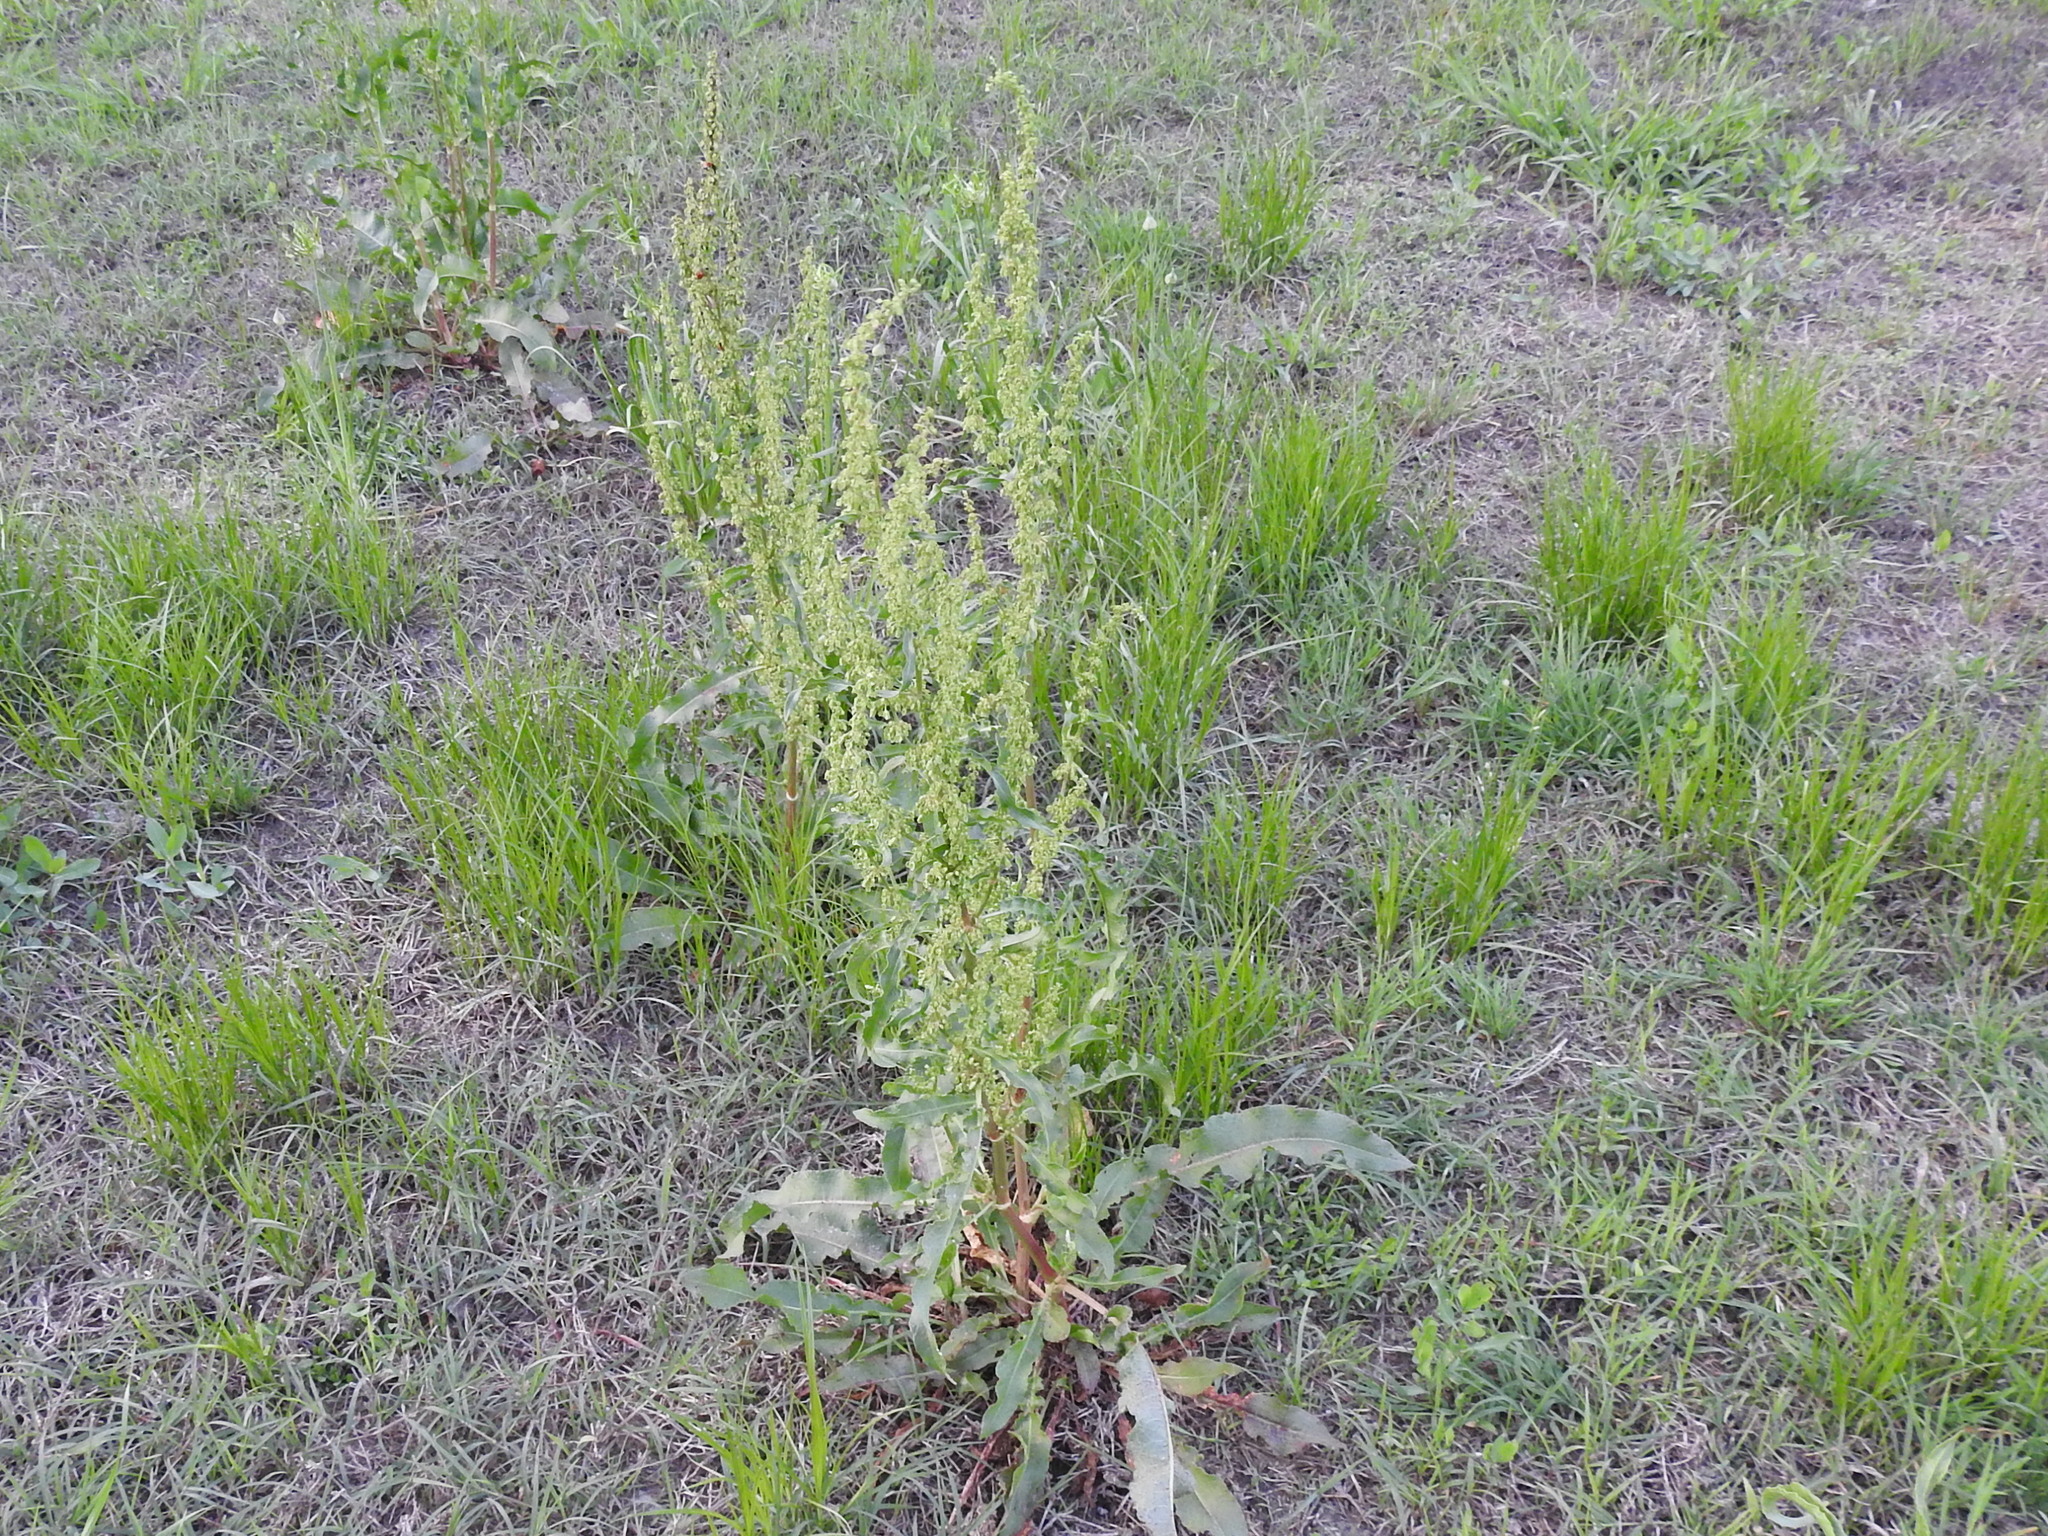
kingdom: Plantae
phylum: Tracheophyta
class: Magnoliopsida
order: Caryophyllales
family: Polygonaceae
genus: Rumex
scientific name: Rumex crispus
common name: Curled dock
